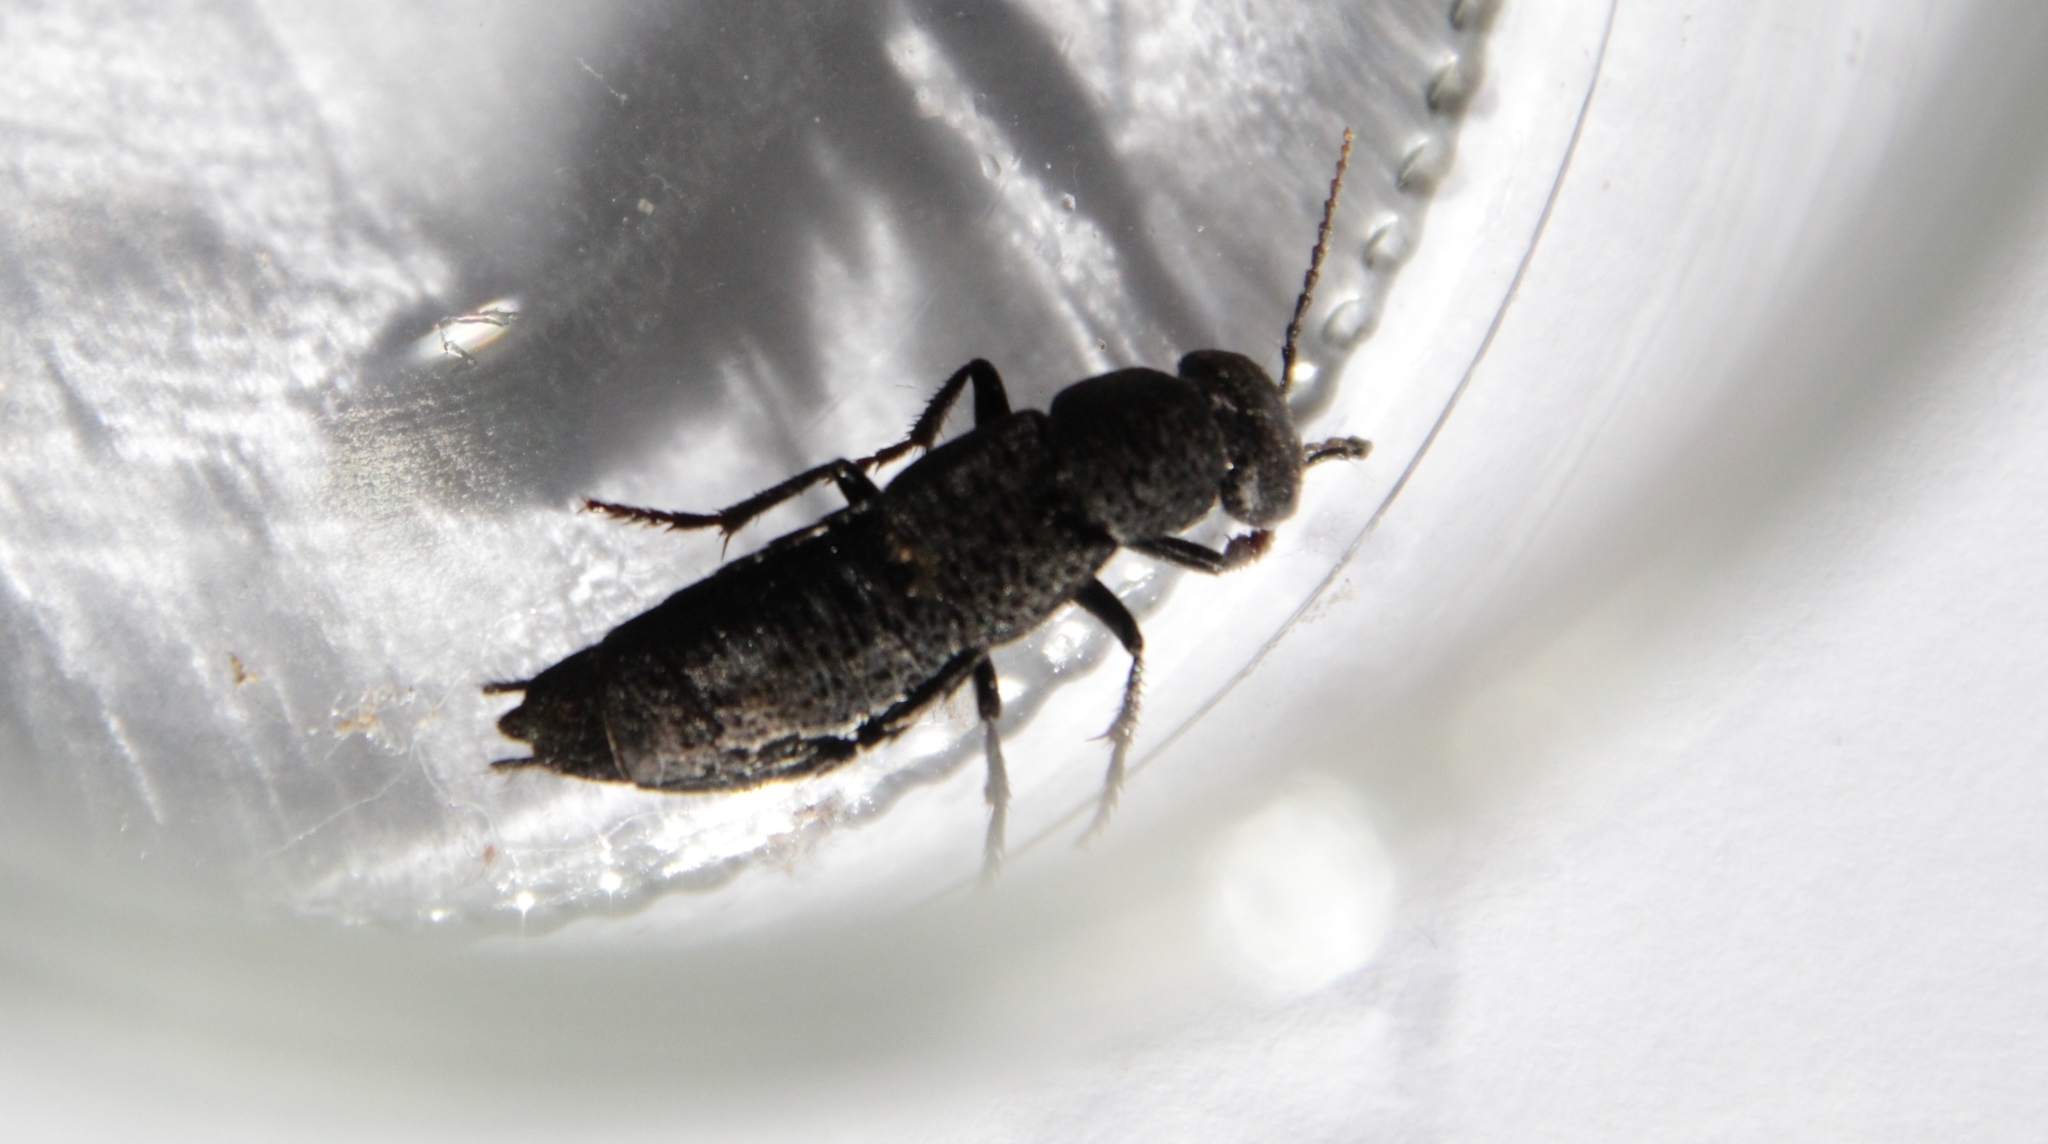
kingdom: Animalia
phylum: Arthropoda
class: Insecta
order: Coleoptera
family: Staphylinidae
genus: Ocypus
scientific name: Ocypus olens
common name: Devil's coach-horse
